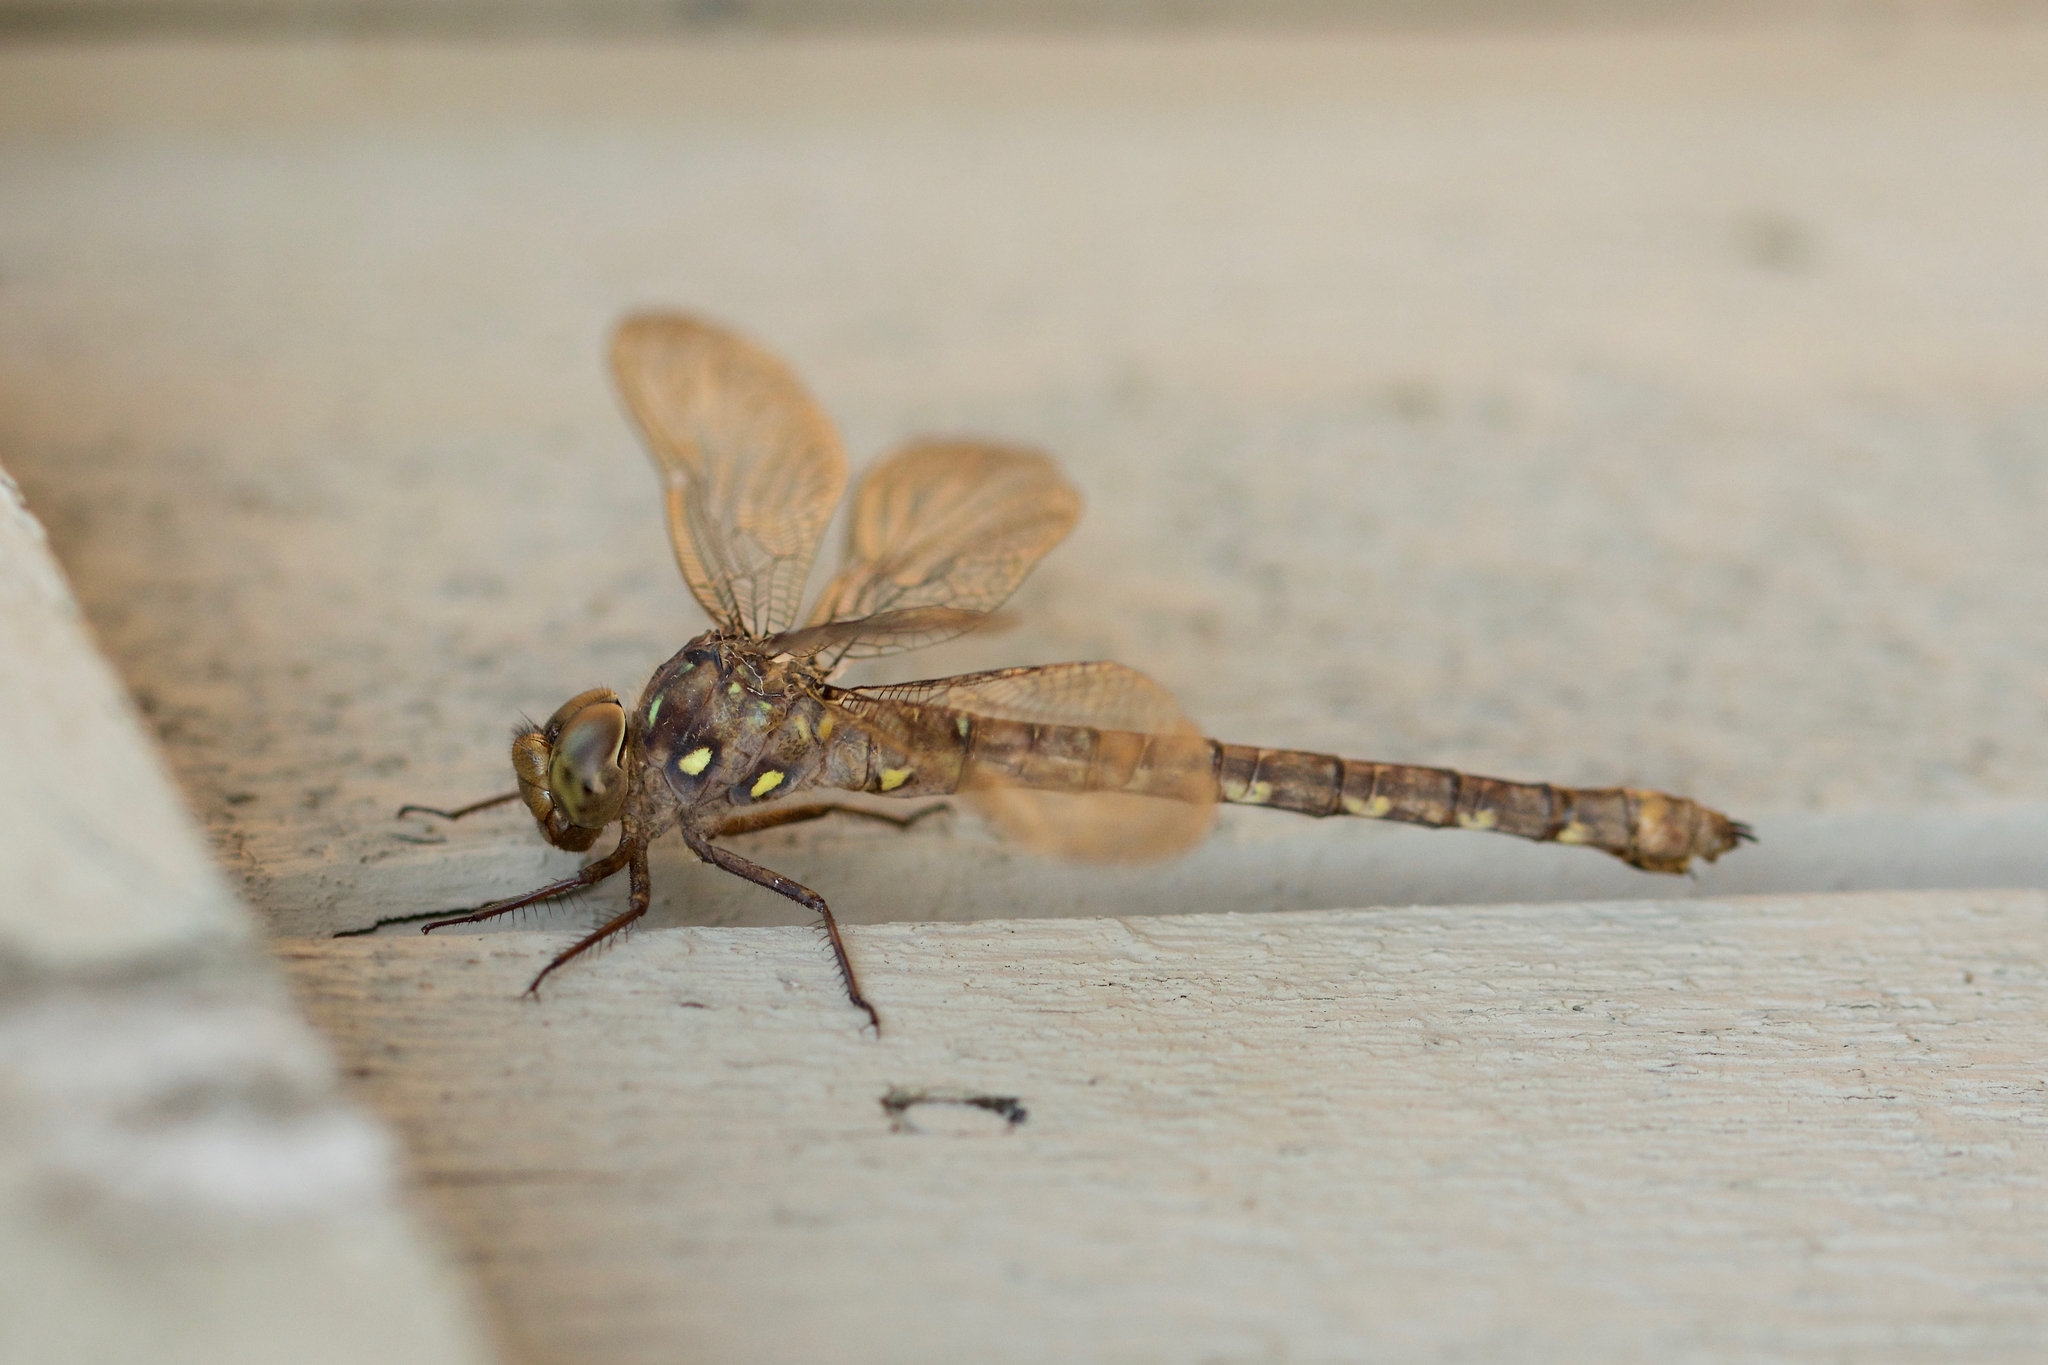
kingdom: Animalia
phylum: Arthropoda
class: Insecta
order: Odonata
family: Aeshnidae
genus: Boyeria
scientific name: Boyeria grafiana
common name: Ocellated darner
